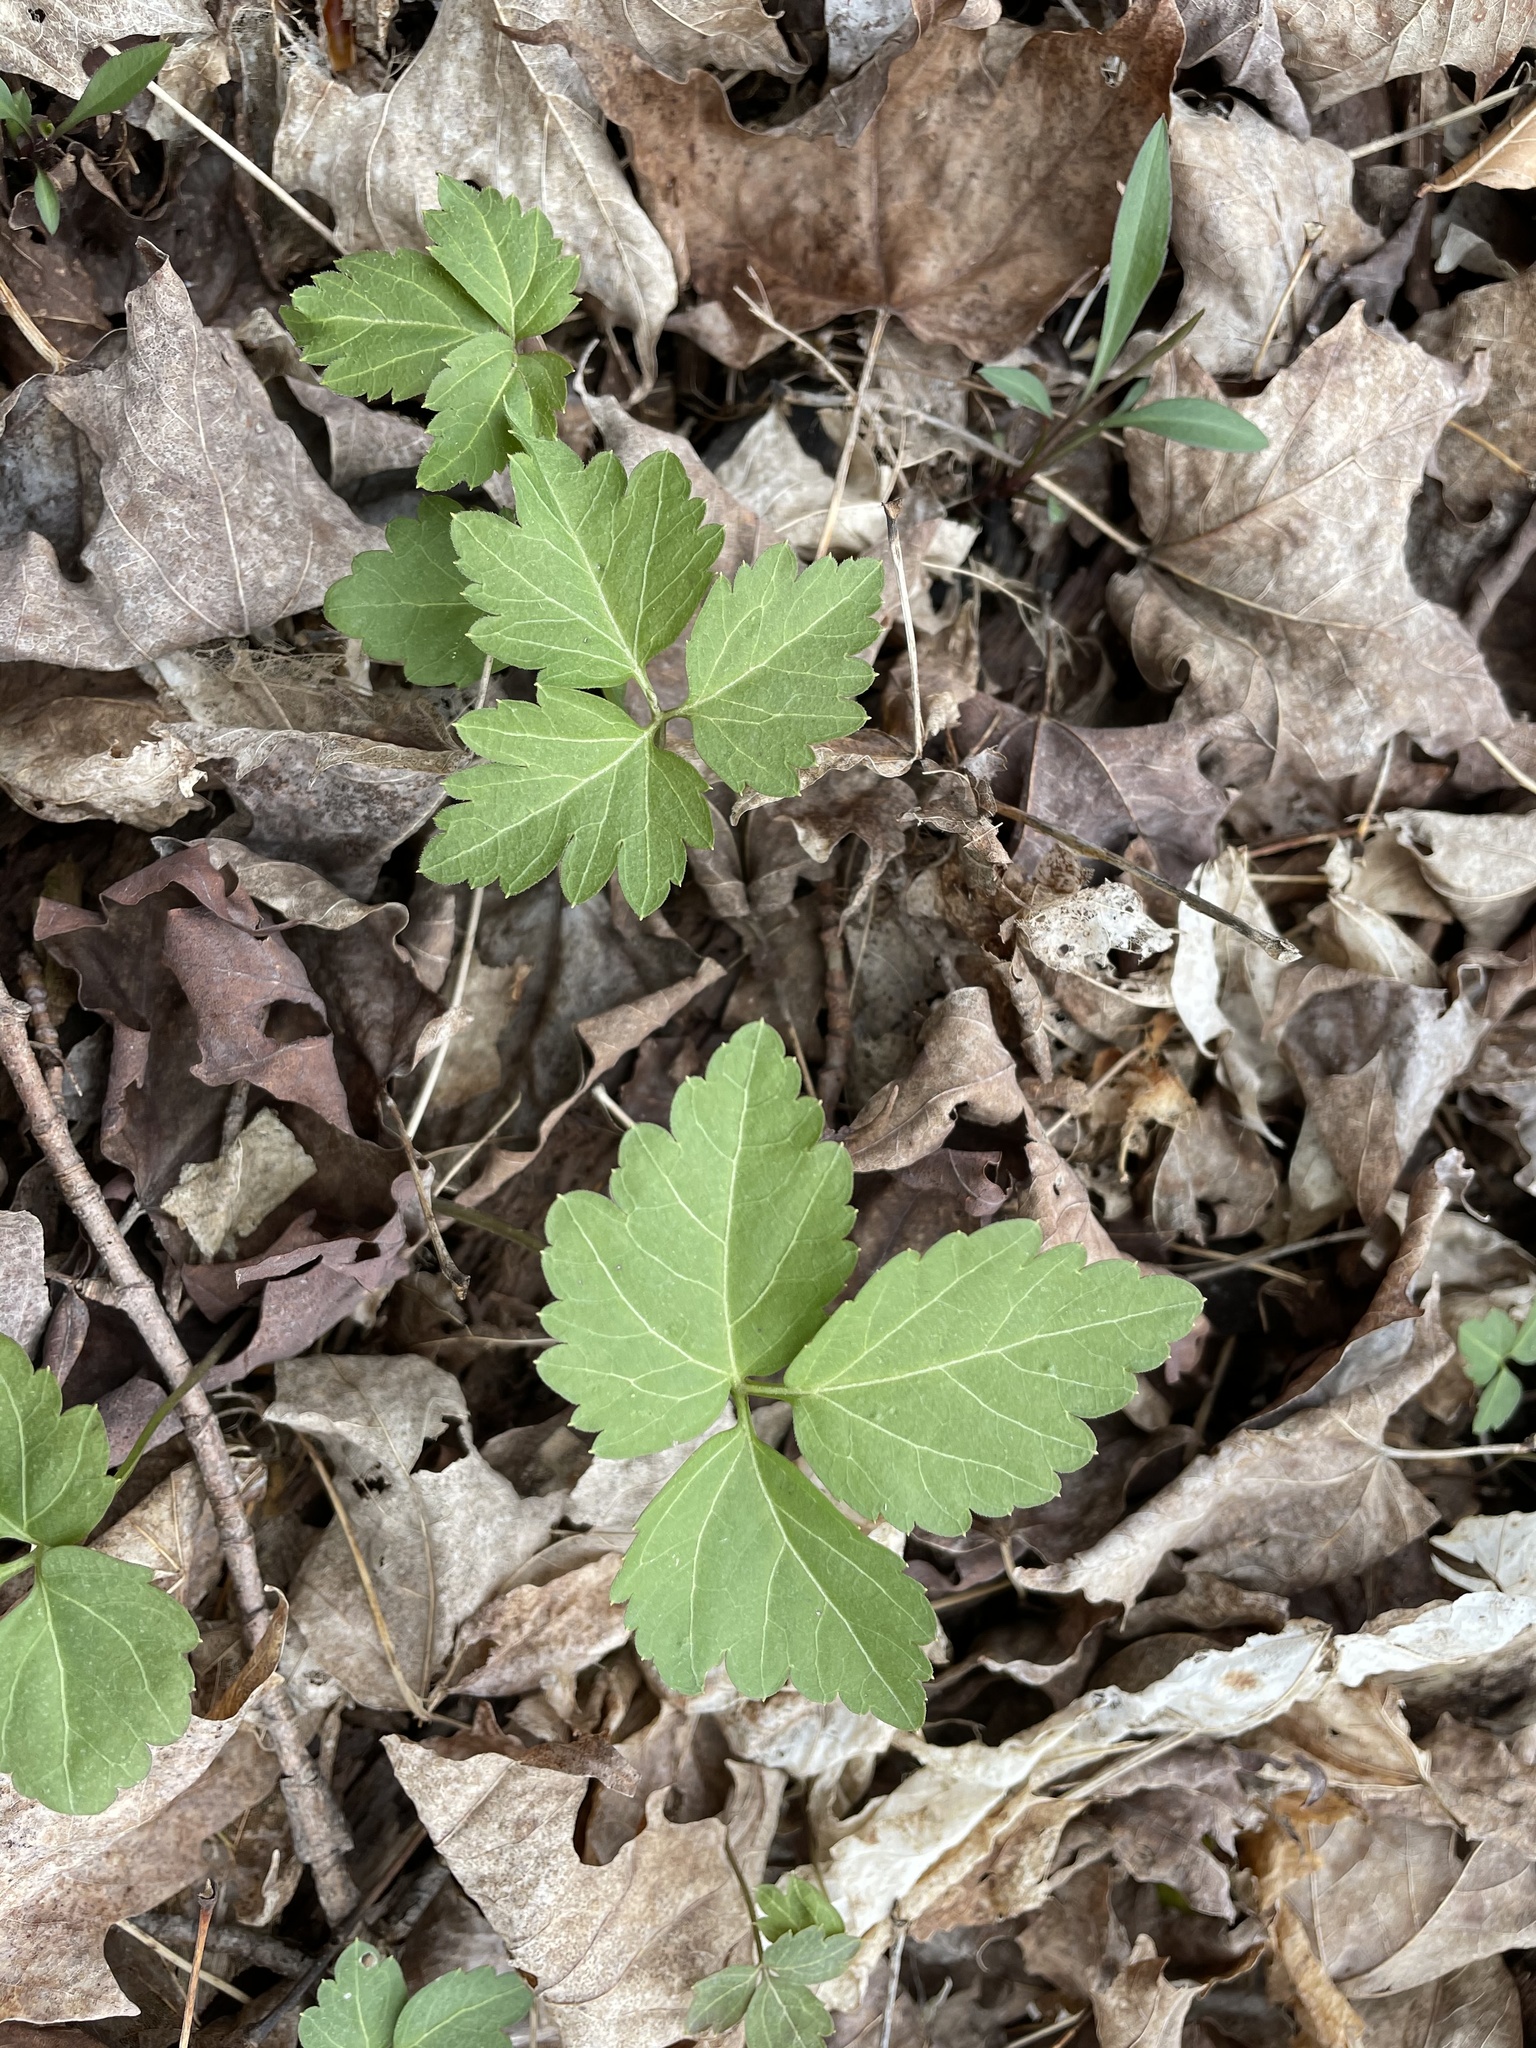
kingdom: Plantae
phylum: Tracheophyta
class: Magnoliopsida
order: Brassicales
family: Brassicaceae
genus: Cardamine
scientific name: Cardamine diphylla
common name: Broad-leaved toothwort
